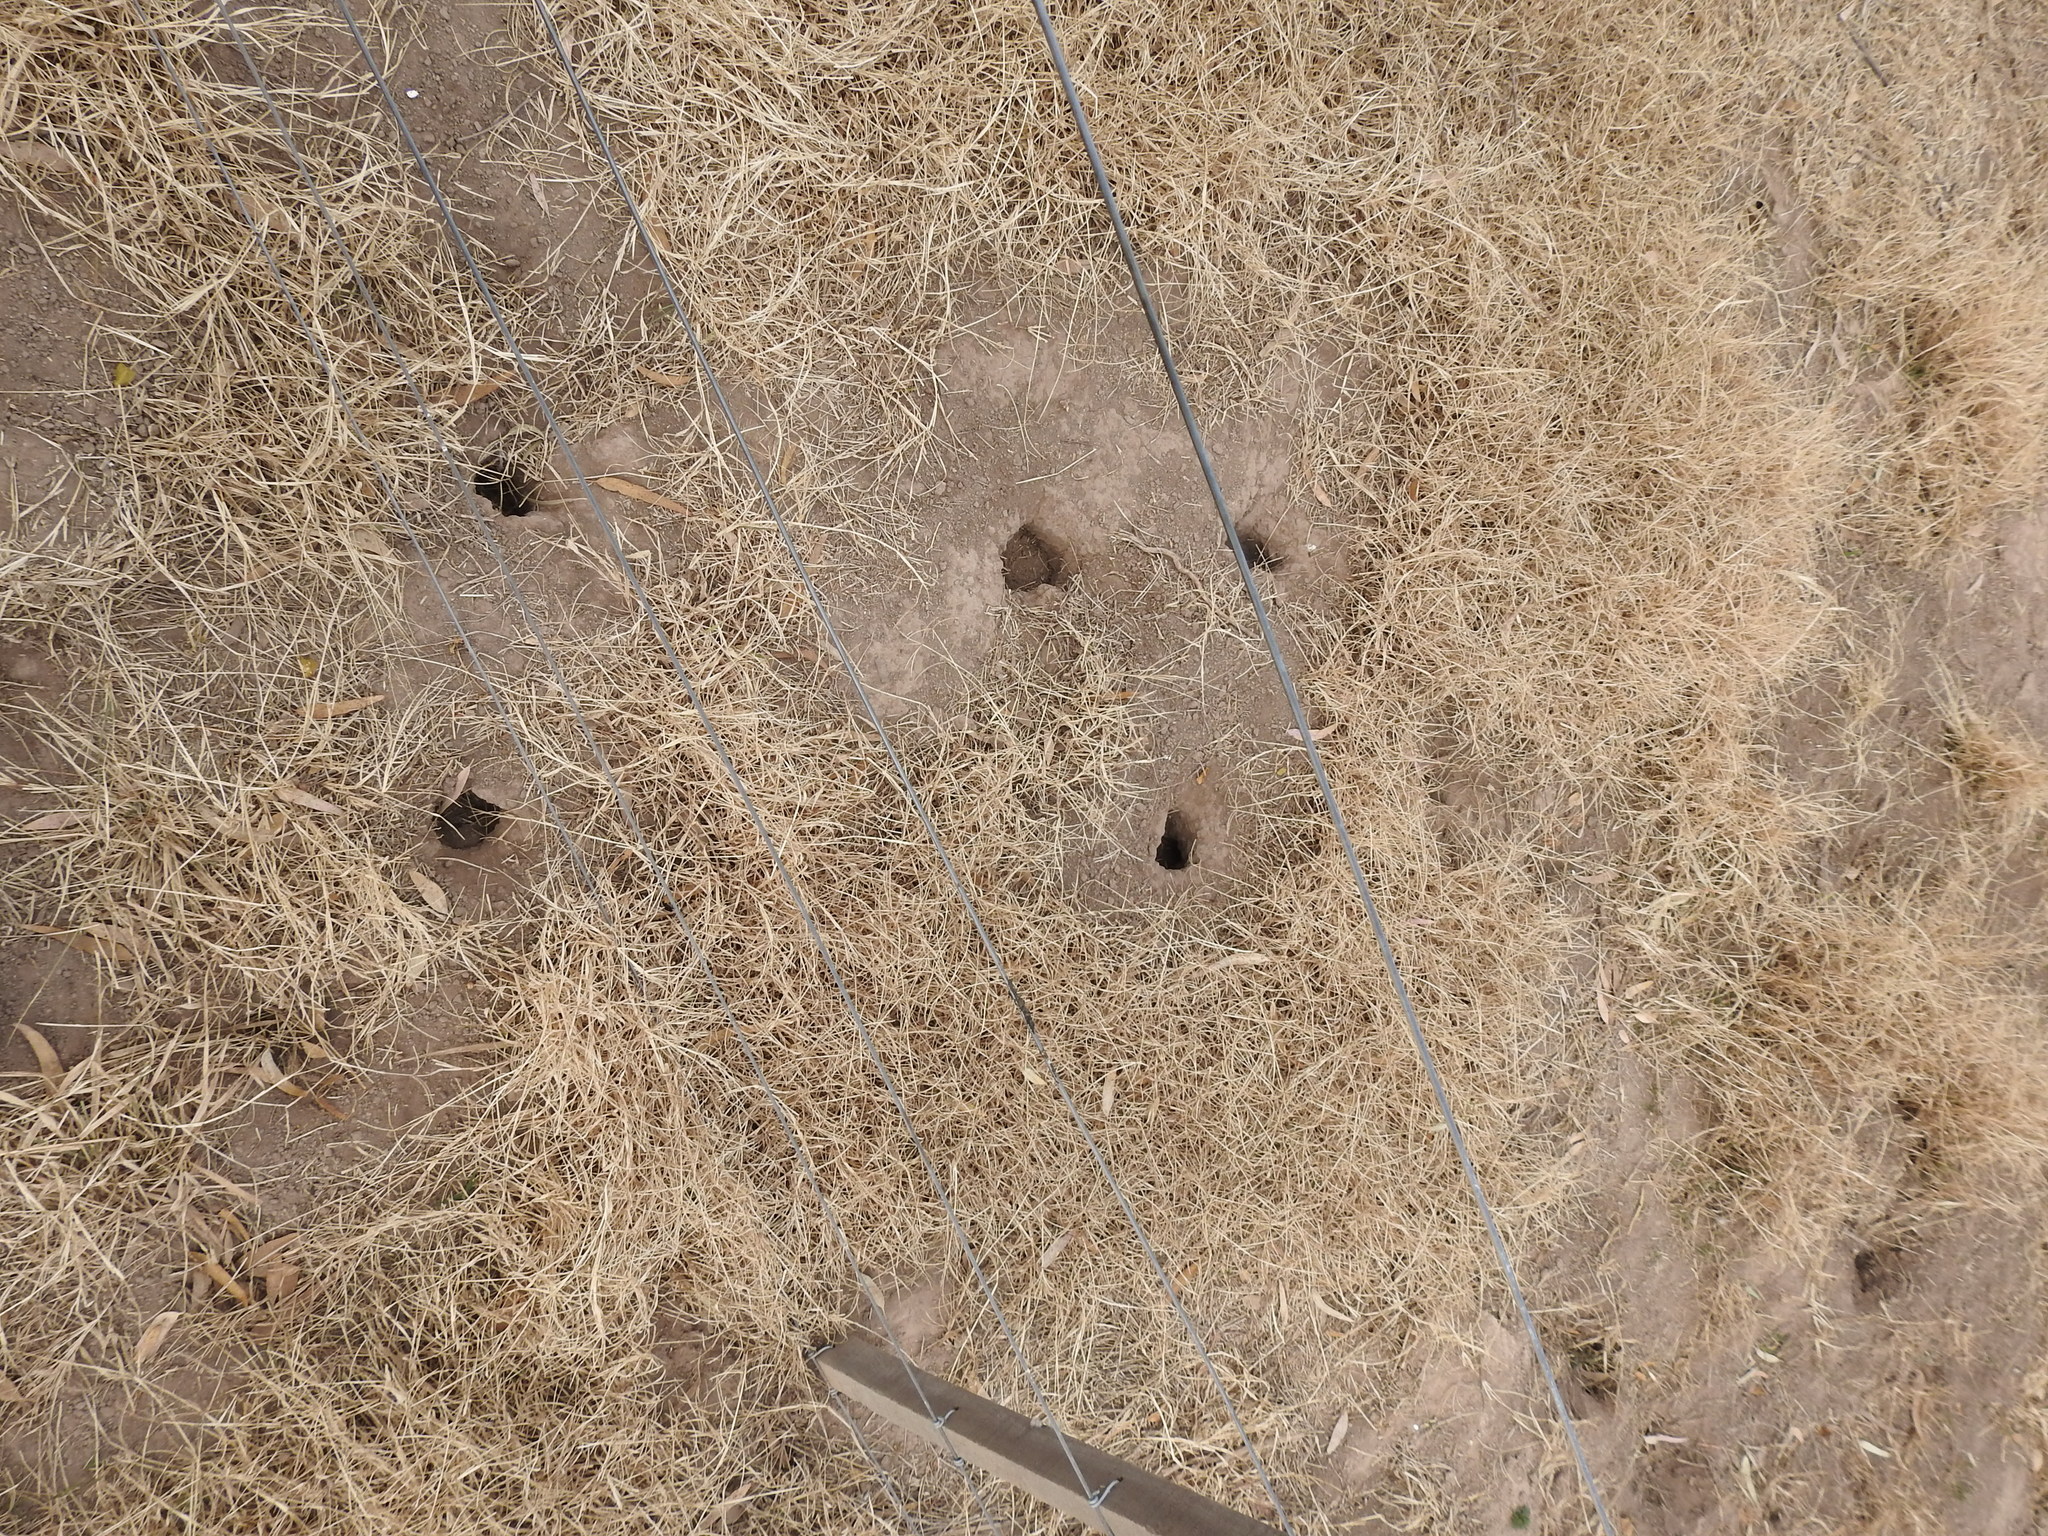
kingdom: Animalia
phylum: Chordata
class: Mammalia
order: Rodentia
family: Ctenomyidae
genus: Ctenomys
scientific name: Ctenomys rosendopascuali
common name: Rosendo pascual’s tuco-tuco
